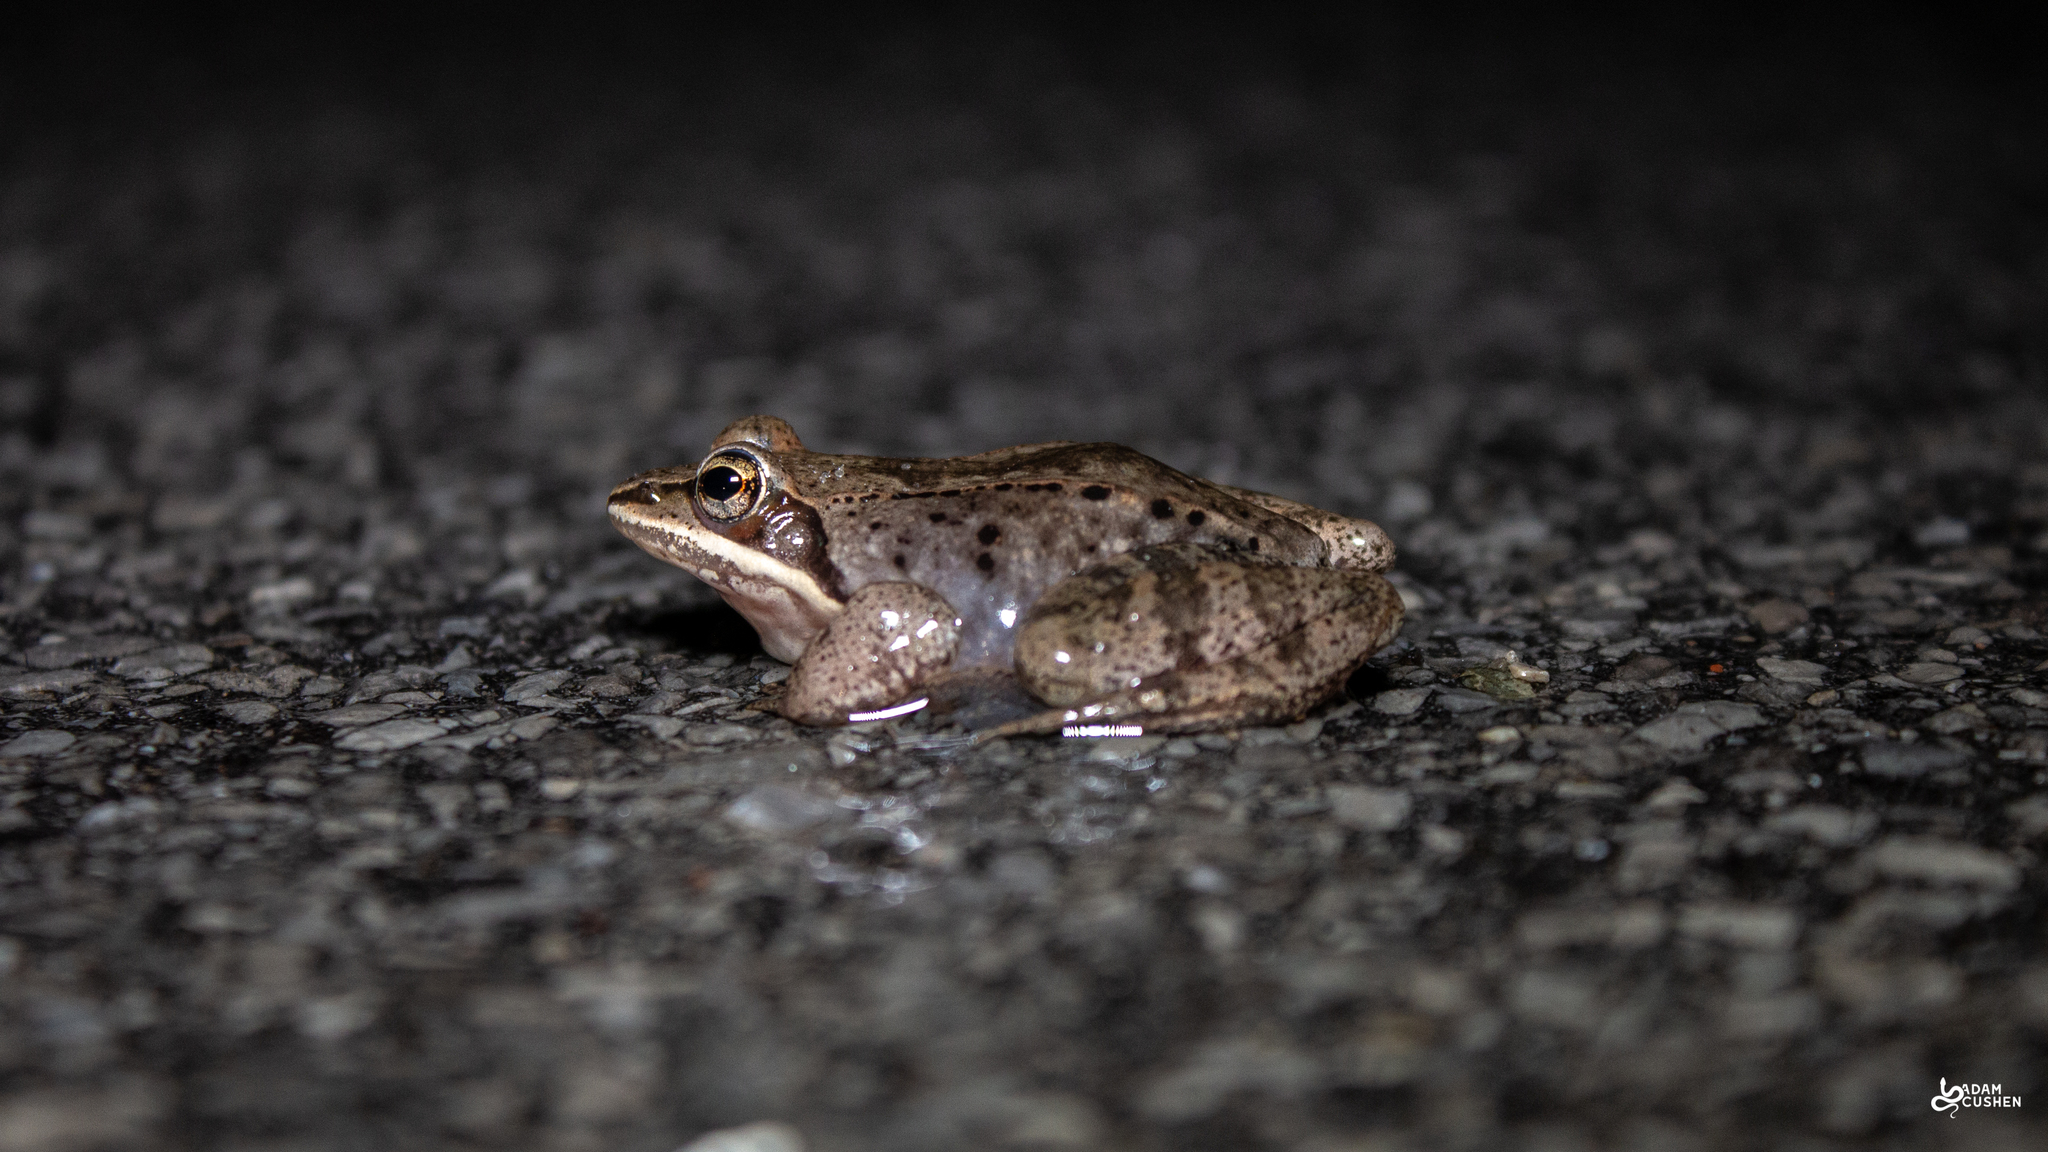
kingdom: Animalia
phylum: Chordata
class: Amphibia
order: Anura
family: Ranidae
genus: Lithobates
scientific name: Lithobates sylvaticus
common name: Wood frog
